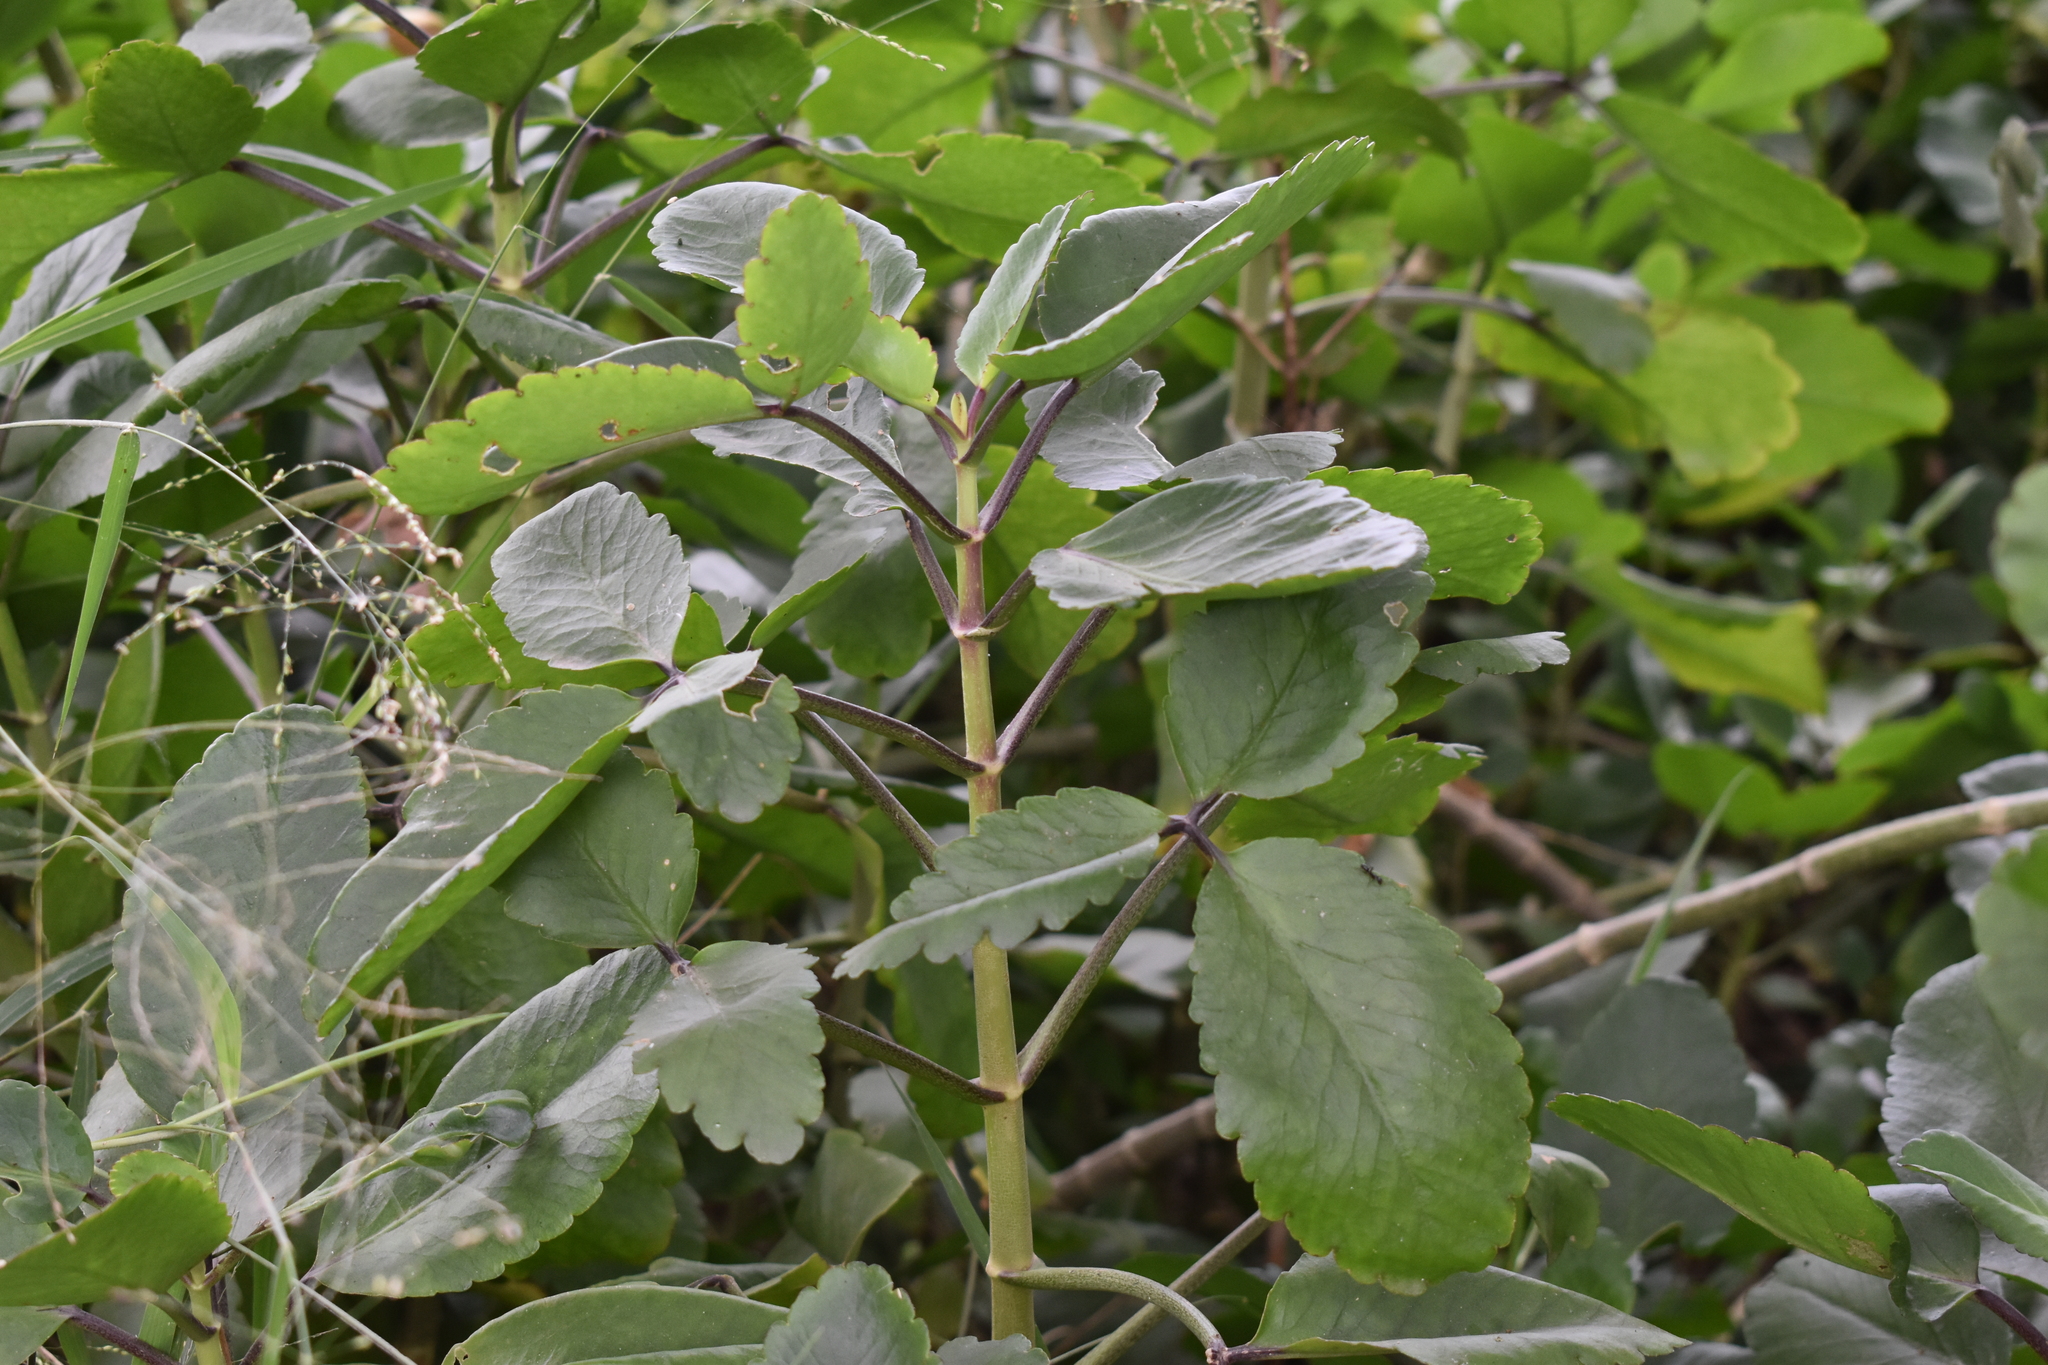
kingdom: Plantae
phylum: Tracheophyta
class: Magnoliopsida
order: Saxifragales
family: Crassulaceae
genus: Kalanchoe
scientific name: Kalanchoe pinnata
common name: Cathedral bells
